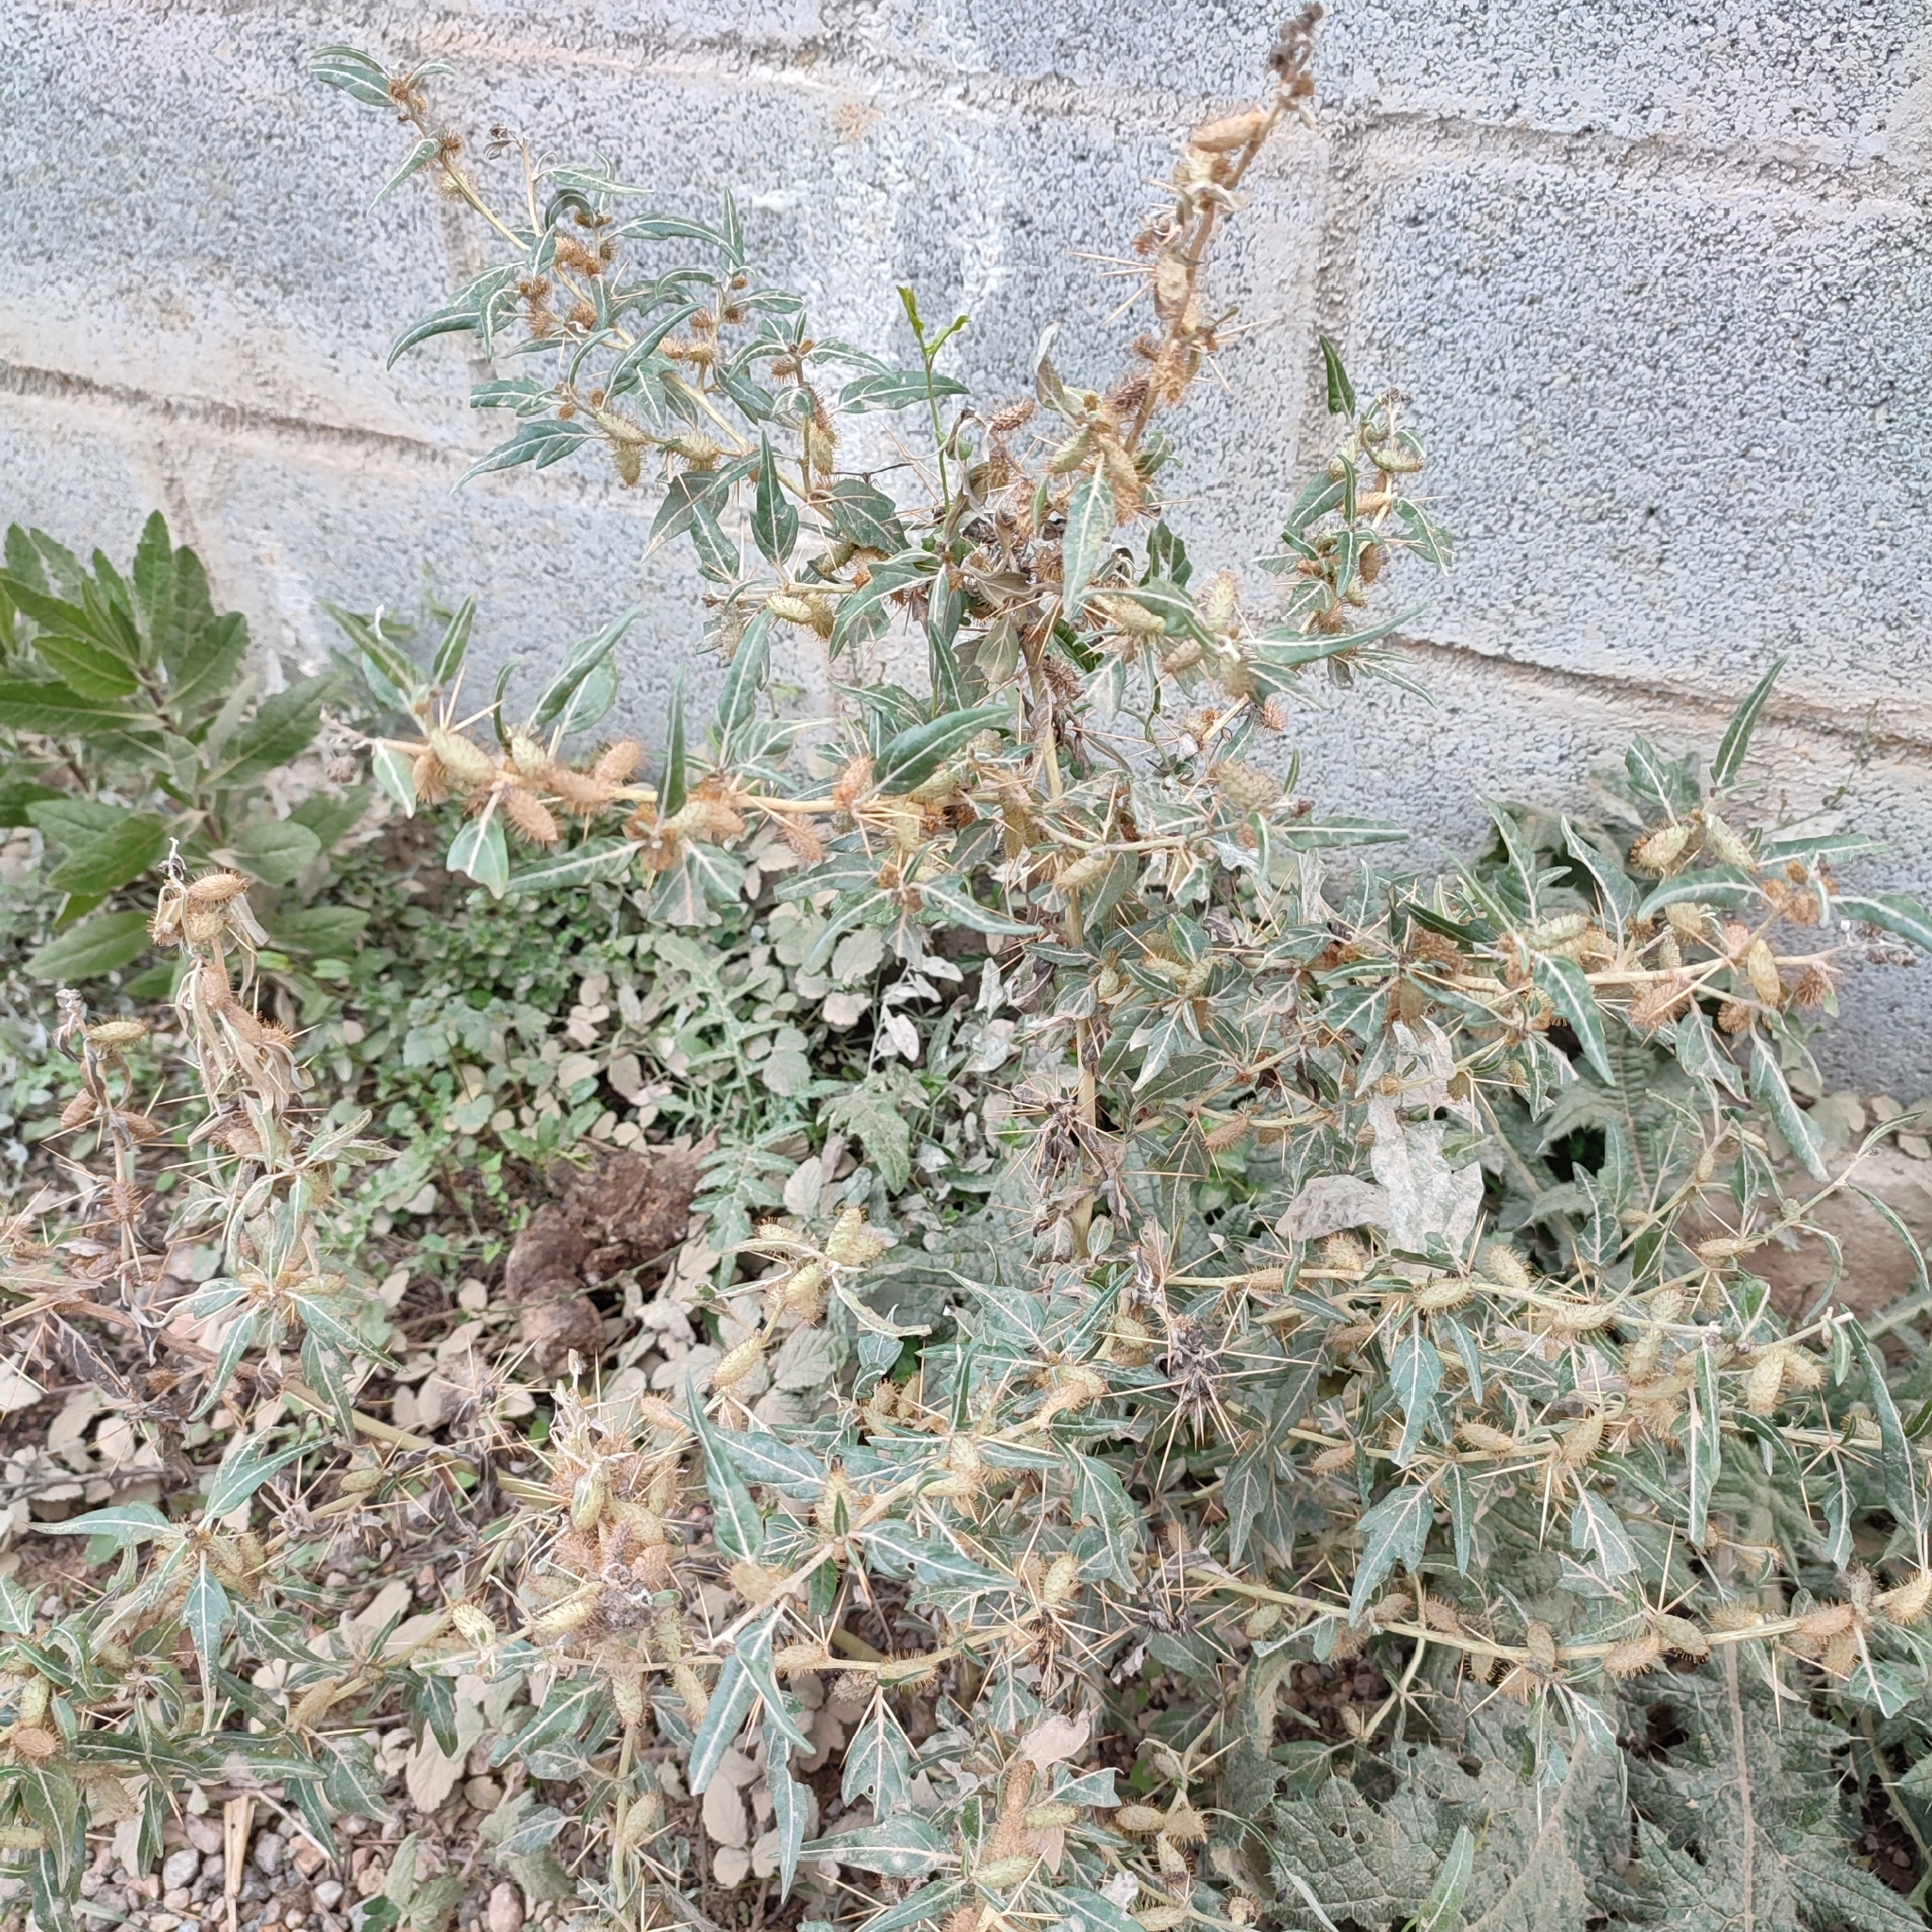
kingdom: Plantae
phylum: Tracheophyta
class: Magnoliopsida
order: Asterales
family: Asteraceae
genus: Xanthium
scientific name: Xanthium spinosum
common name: Spiny cocklebur
